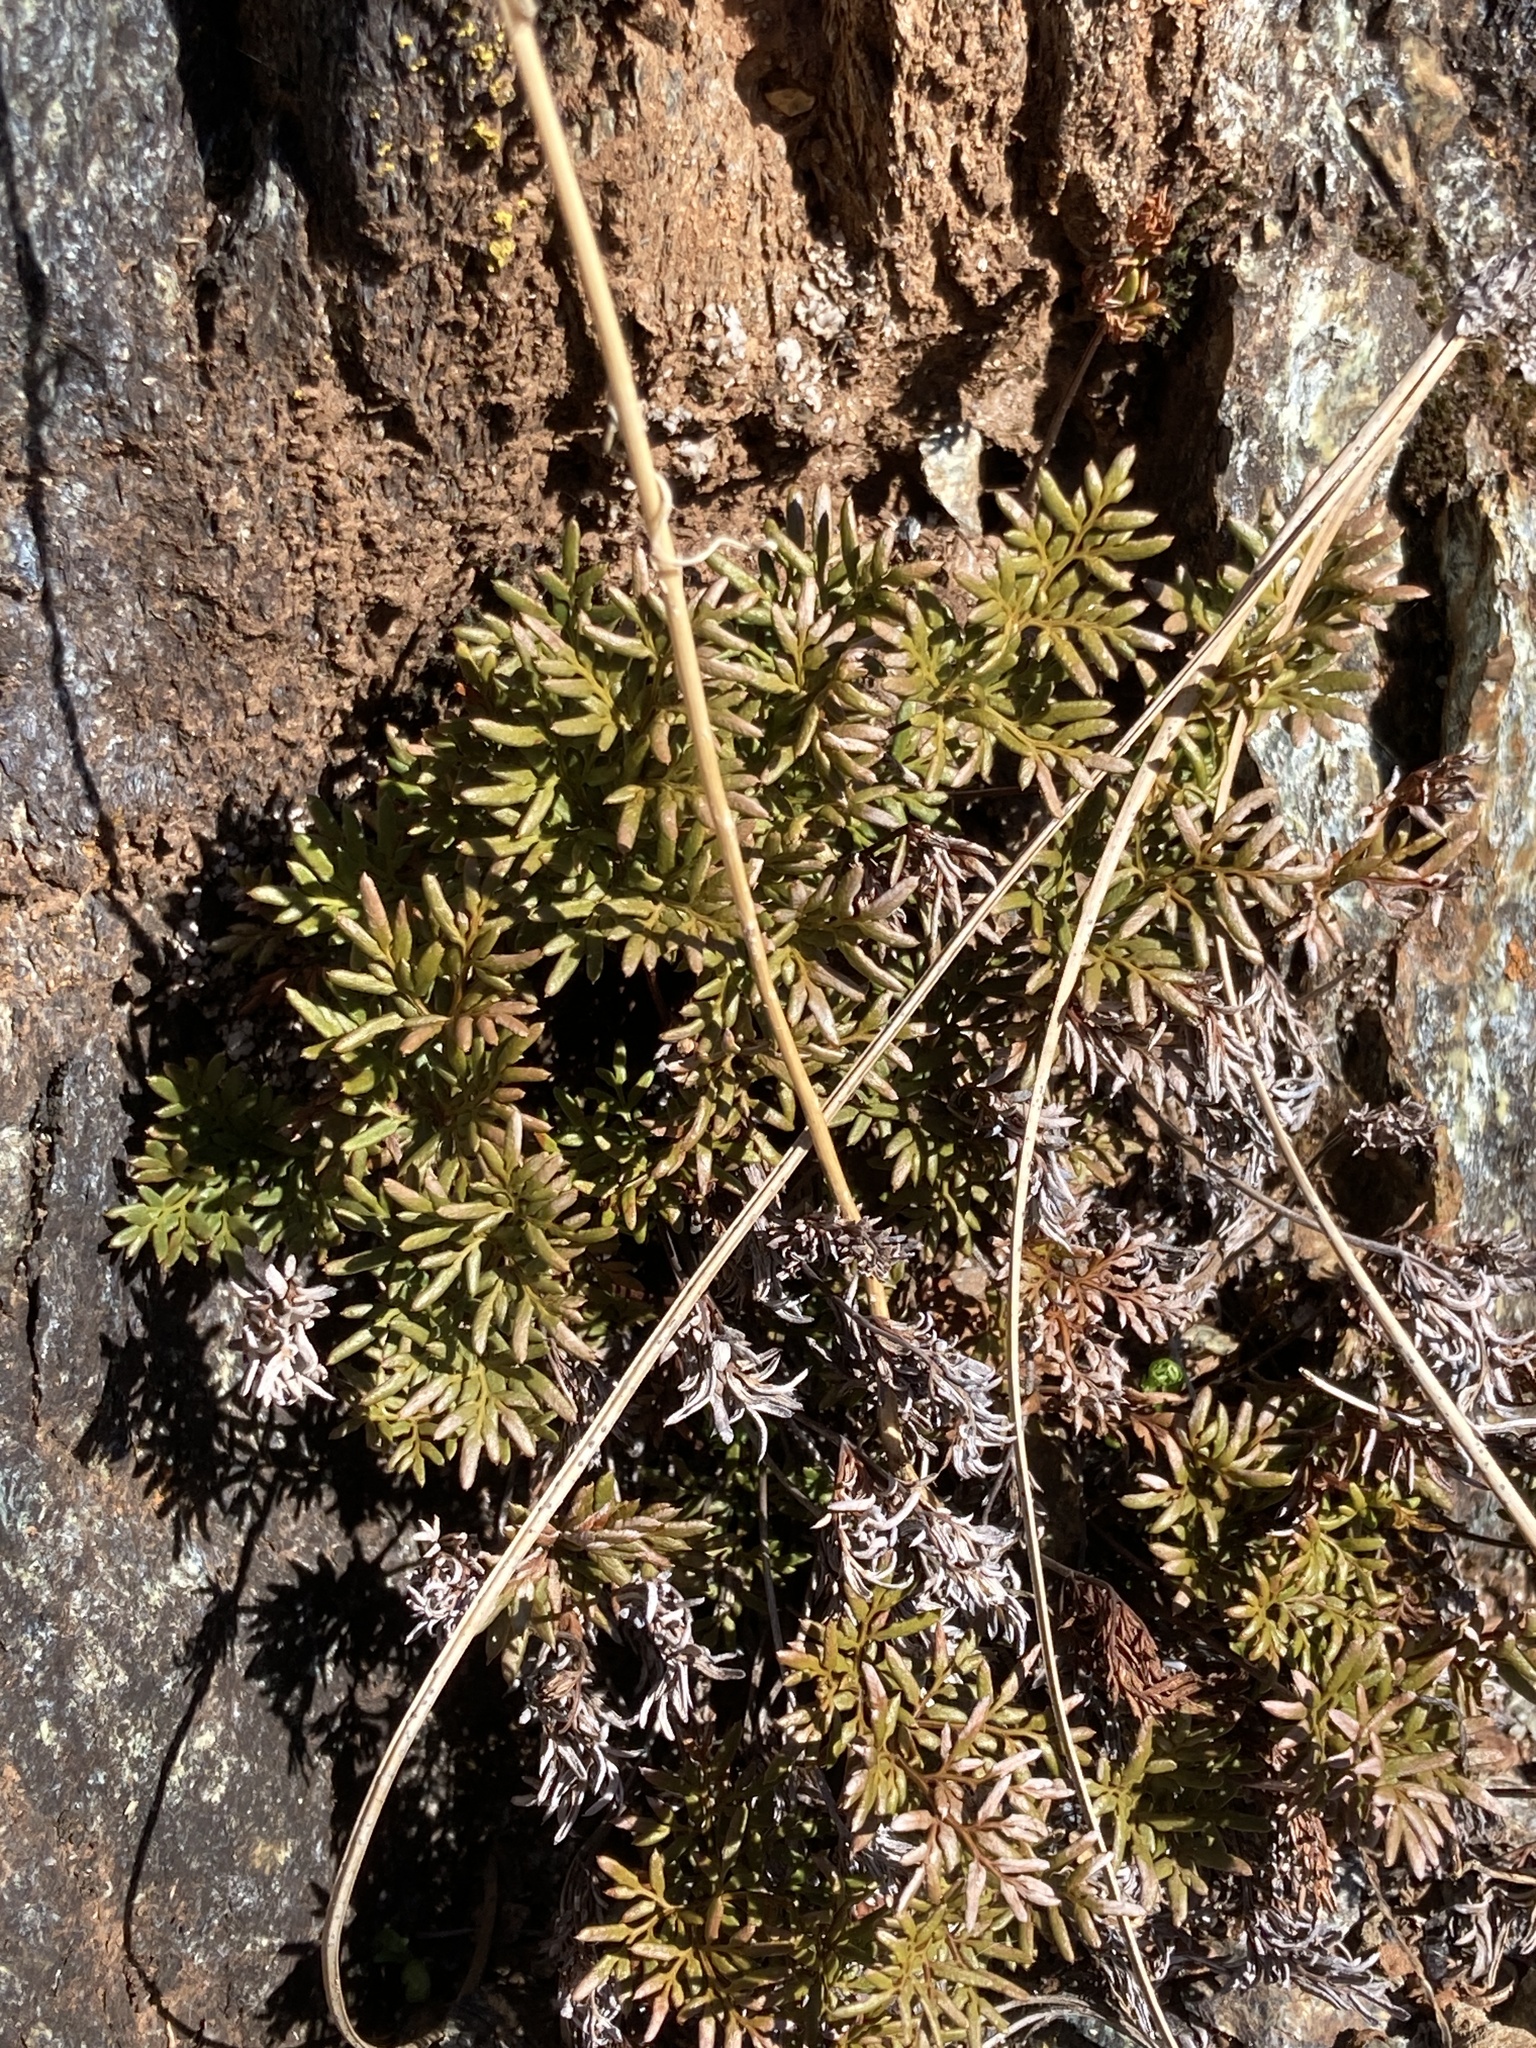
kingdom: Plantae
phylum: Tracheophyta
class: Polypodiopsida
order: Polypodiales
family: Pteridaceae
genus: Aspidotis
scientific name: Aspidotis densa
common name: Indian's dream
